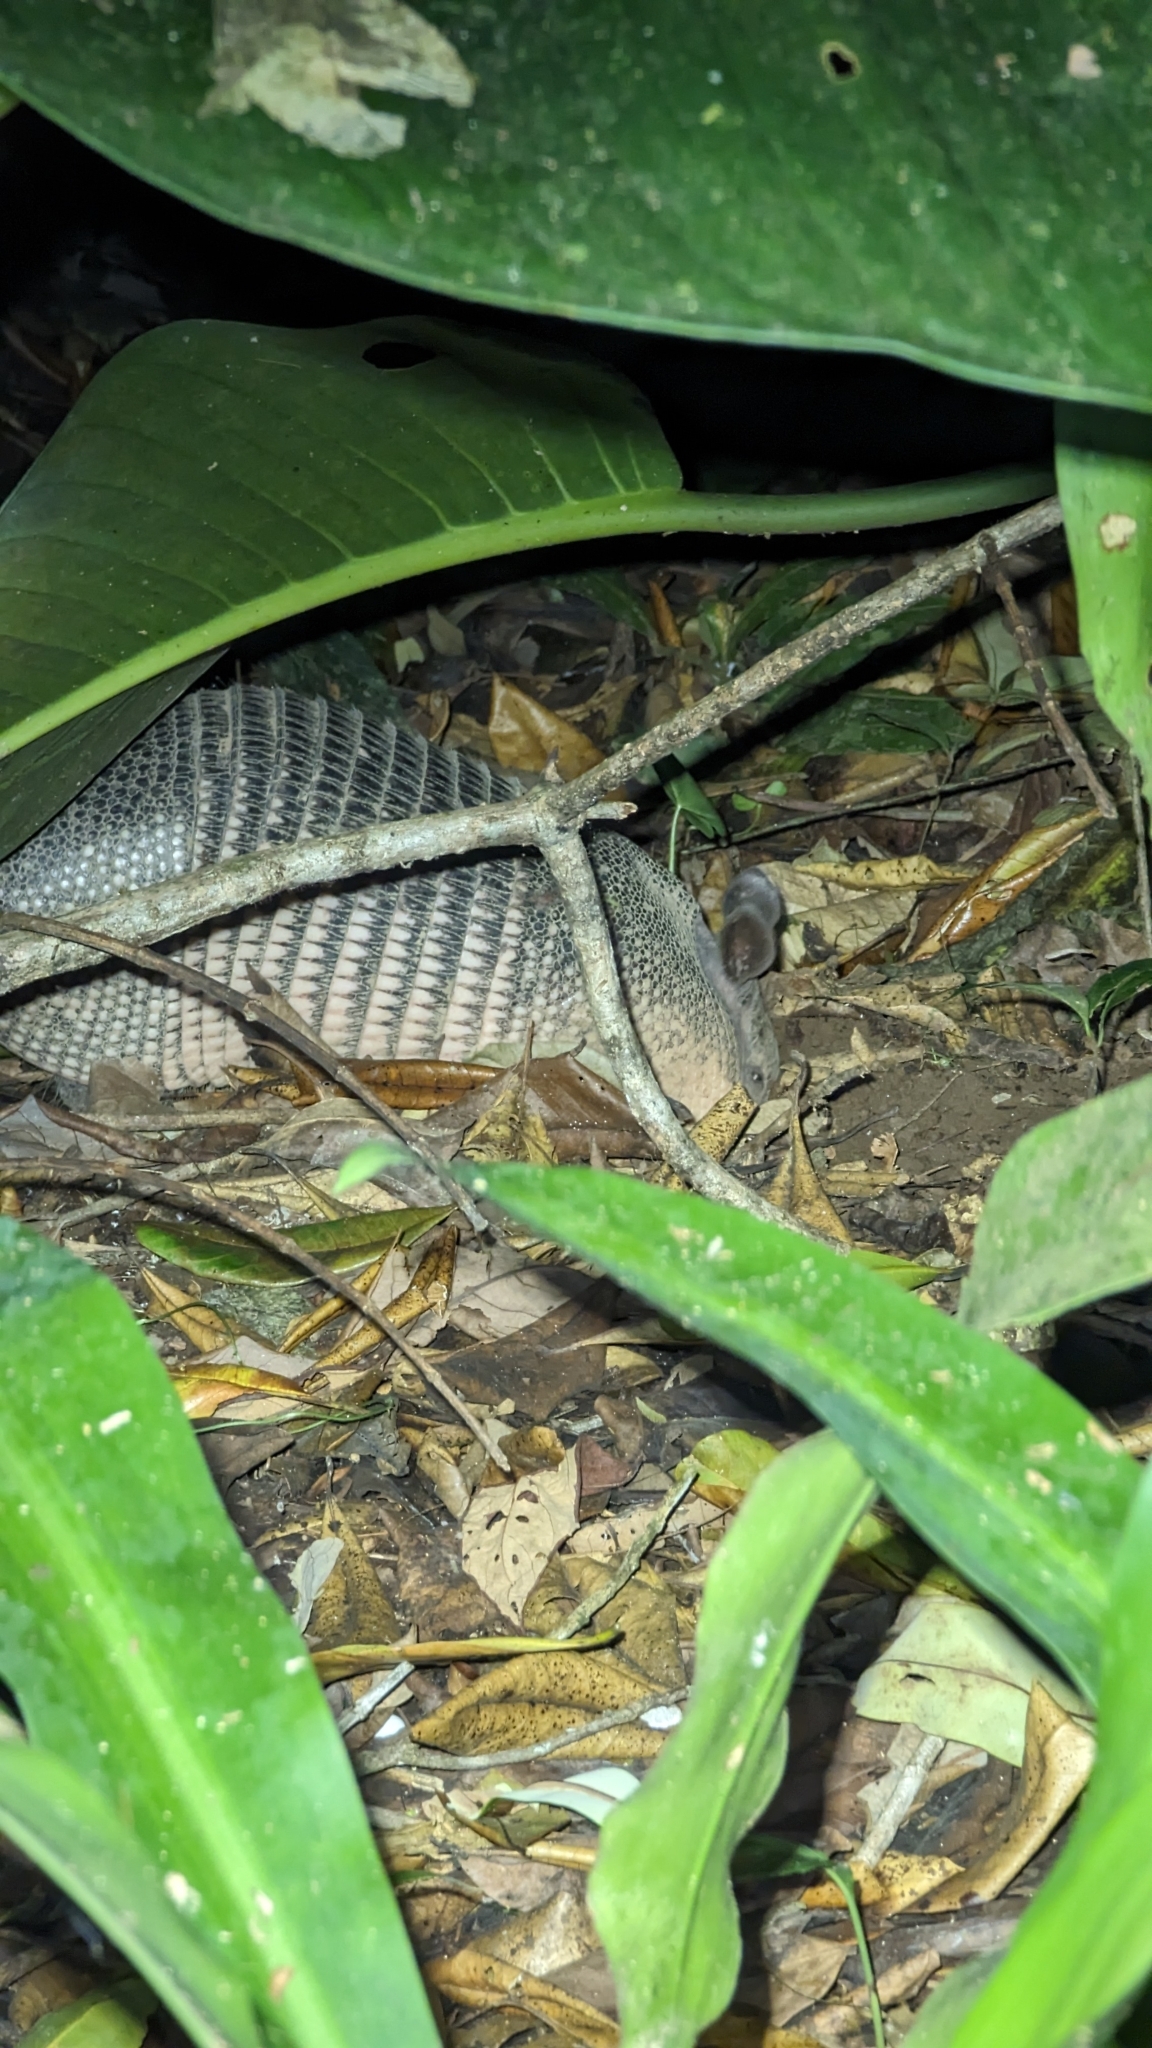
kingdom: Animalia
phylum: Chordata
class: Mammalia
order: Cingulata
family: Dasypodidae
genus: Dasypus
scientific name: Dasypus novemcinctus
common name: Nine-banded armadillo
